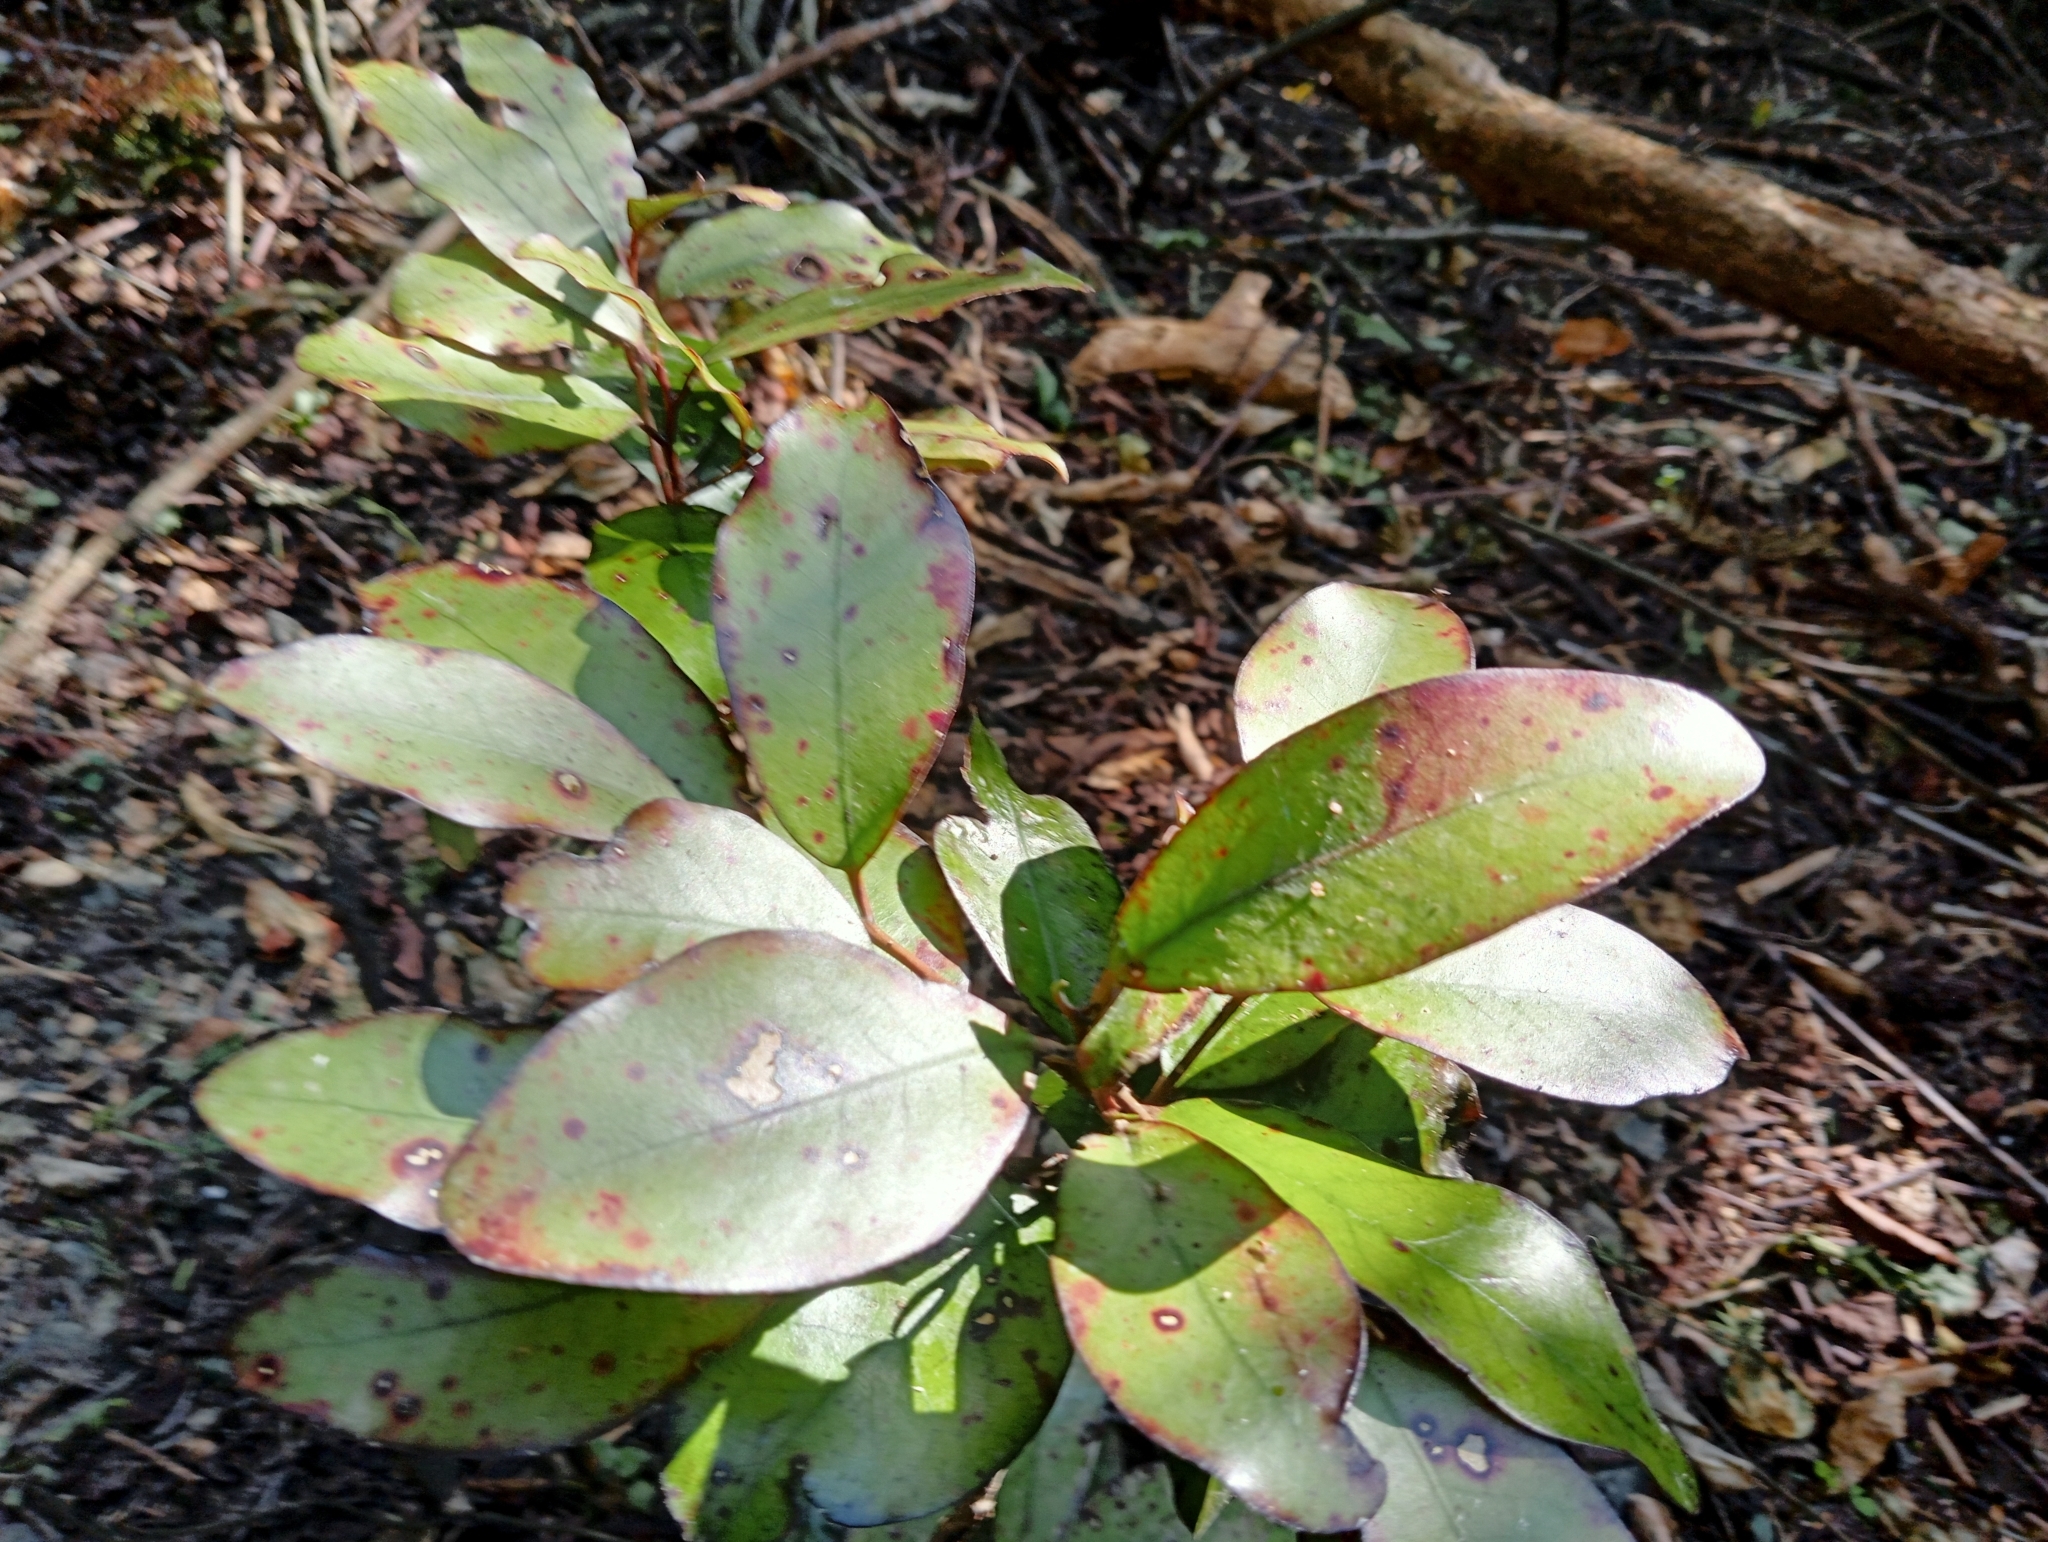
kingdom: Plantae
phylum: Tracheophyta
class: Magnoliopsida
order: Canellales
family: Winteraceae
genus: Pseudowintera
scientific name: Pseudowintera colorata
